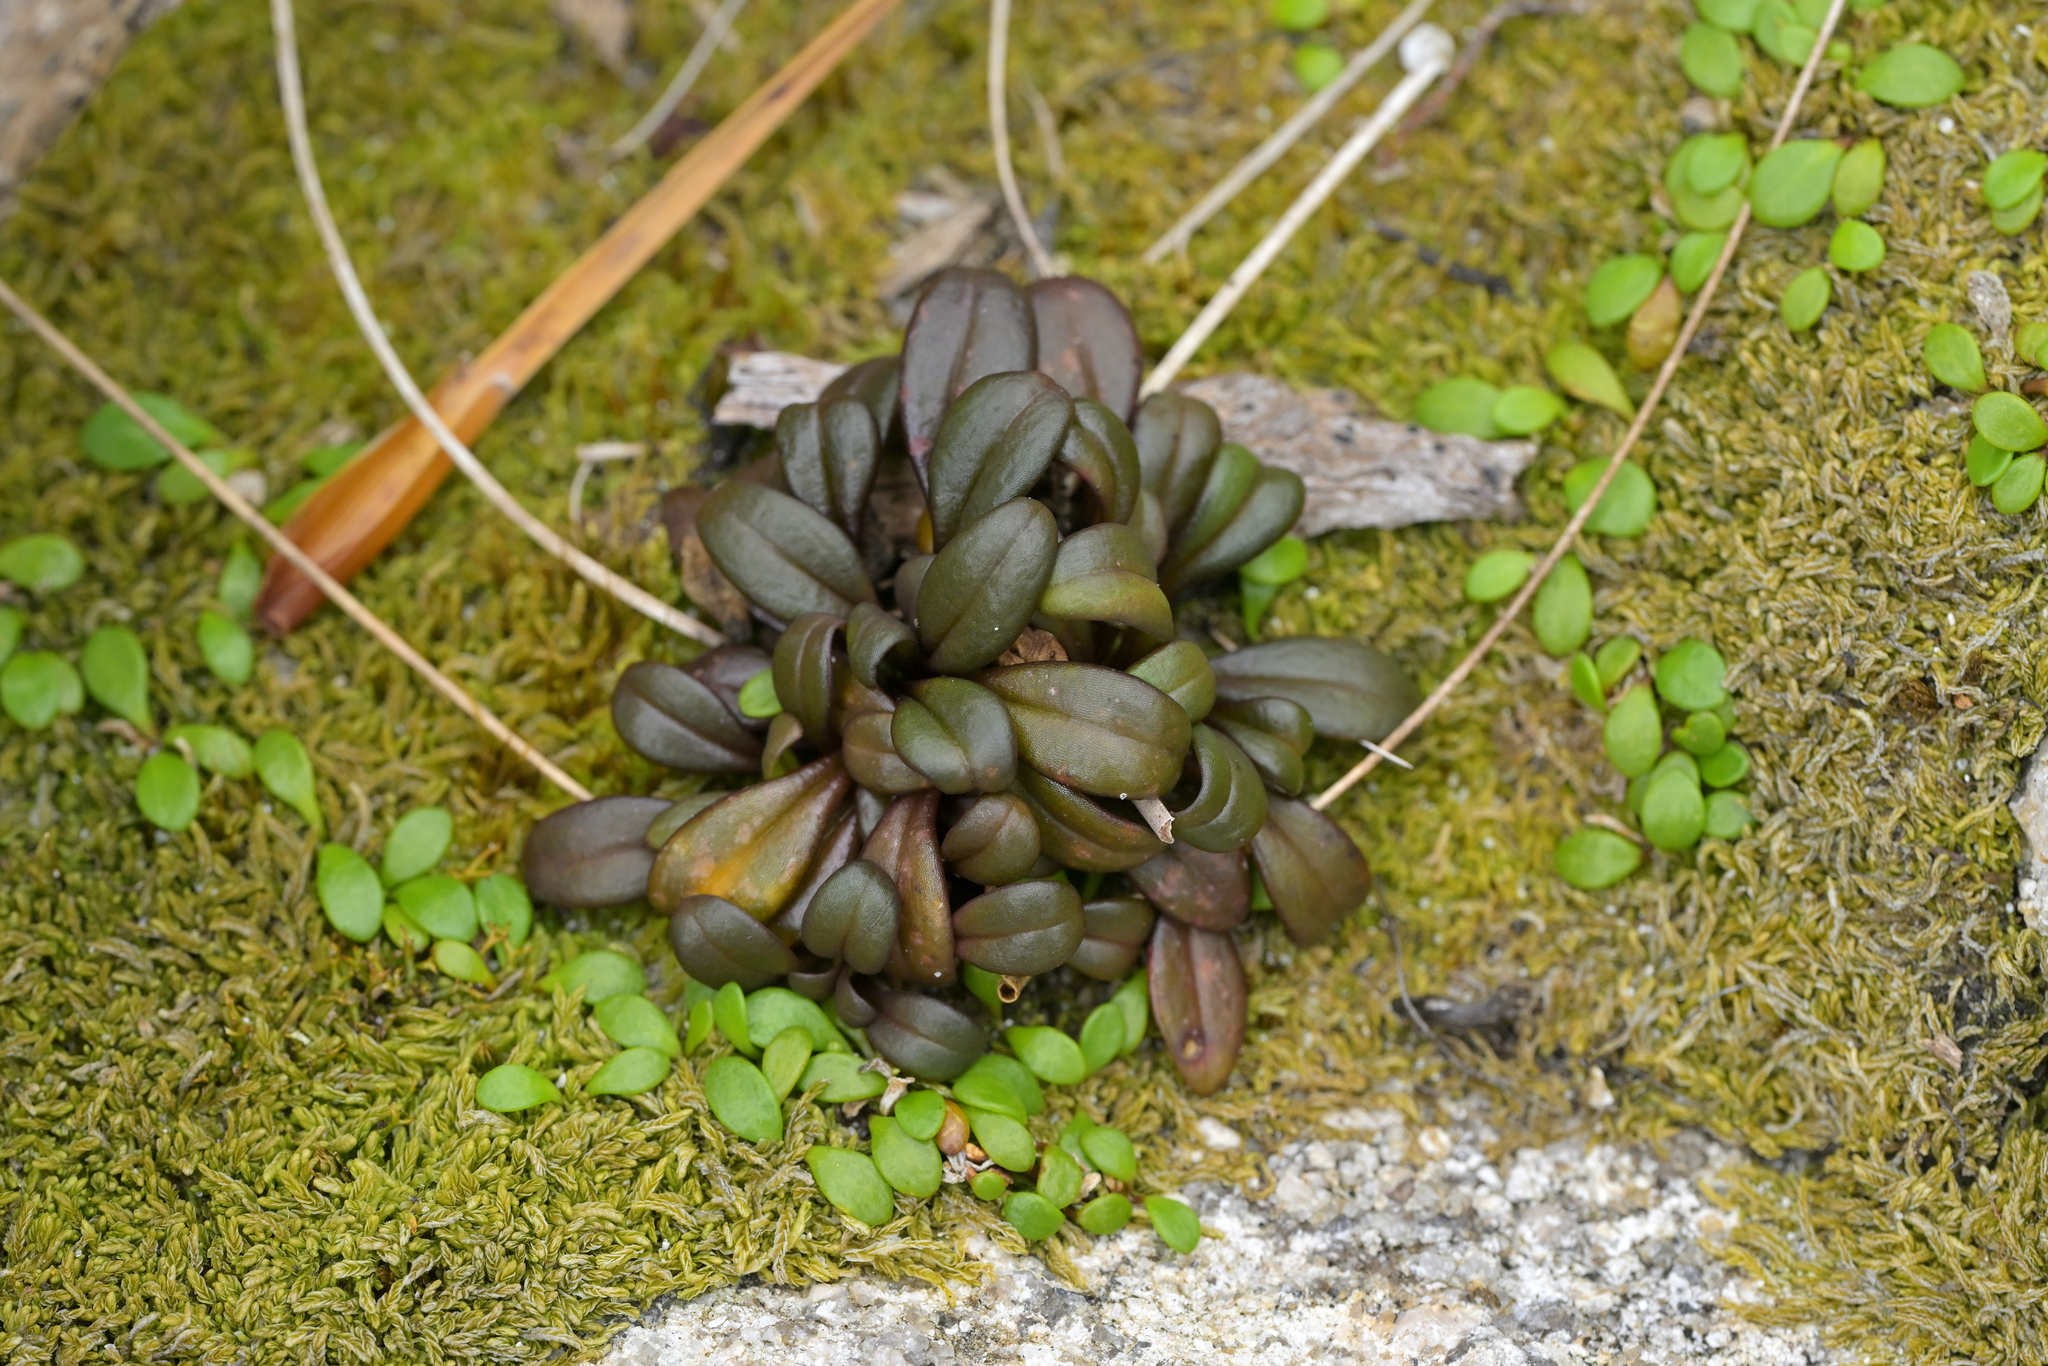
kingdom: Plantae
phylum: Tracheophyta
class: Magnoliopsida
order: Gentianales
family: Gentianaceae
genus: Gentianella
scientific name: Gentianella saxosa
